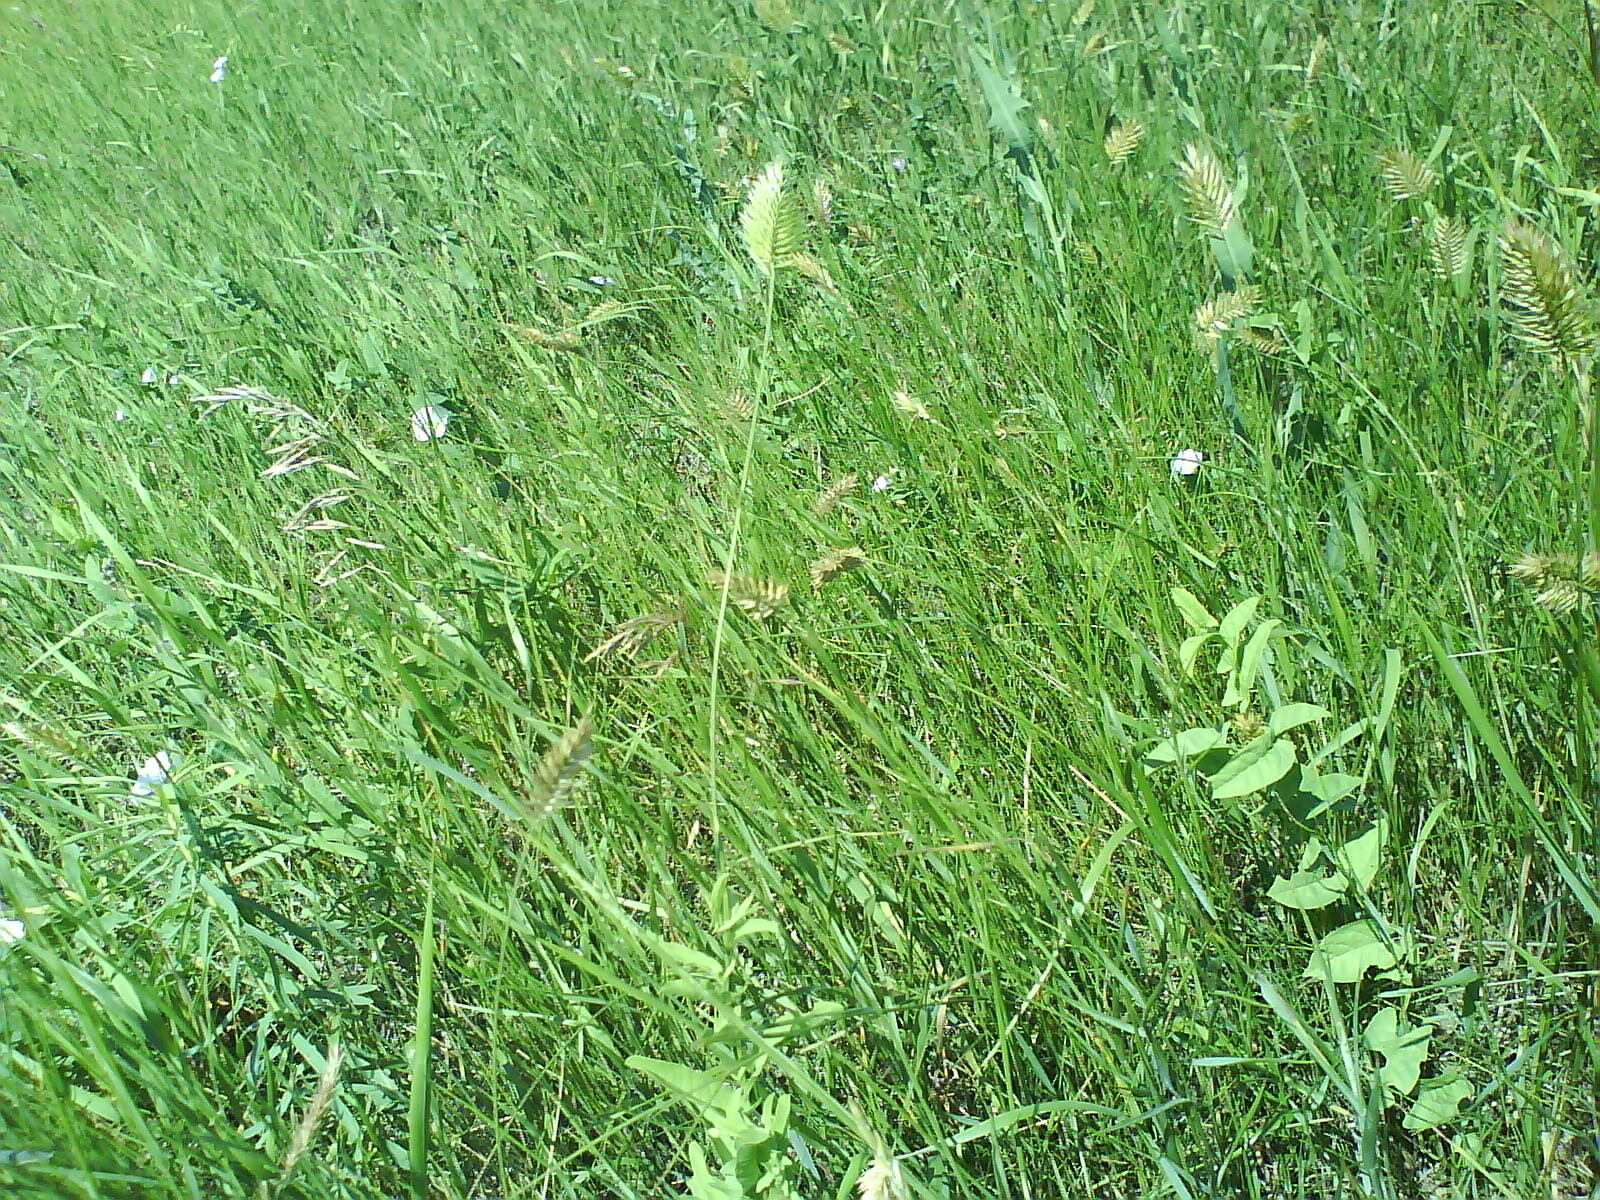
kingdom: Plantae
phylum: Tracheophyta
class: Liliopsida
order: Poales
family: Poaceae
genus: Agropyron
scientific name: Agropyron cristatum
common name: Crested wheatgrass
